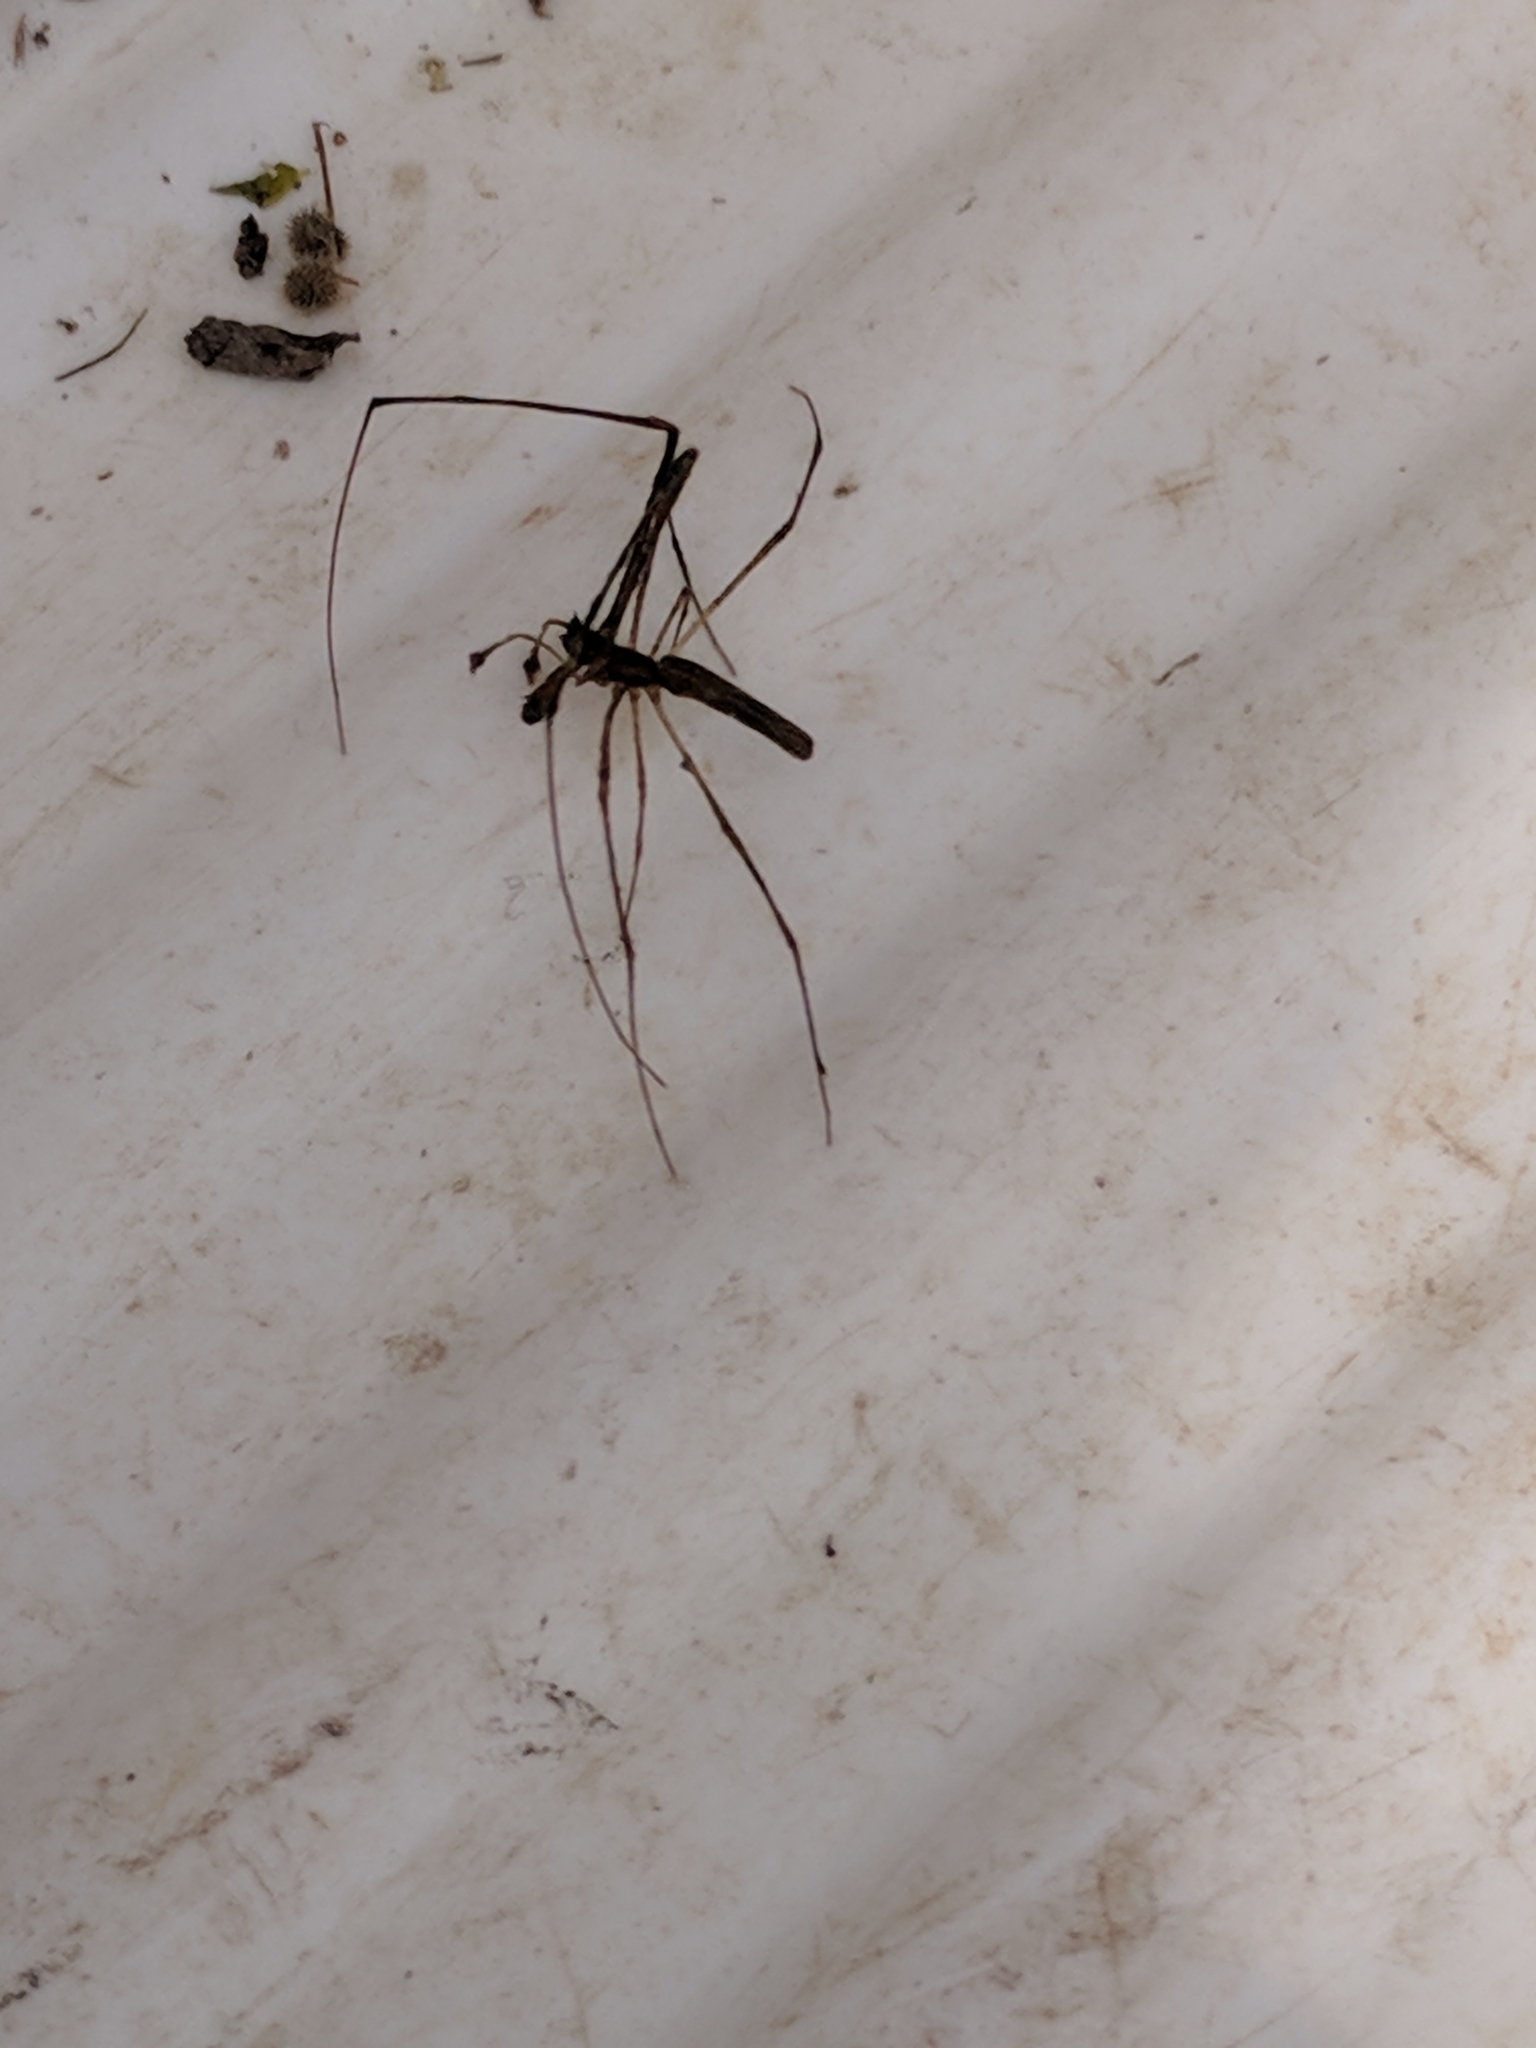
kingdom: Animalia
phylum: Arthropoda
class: Arachnida
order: Araneae
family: Tetragnathidae
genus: Tetragnatha
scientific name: Tetragnatha
